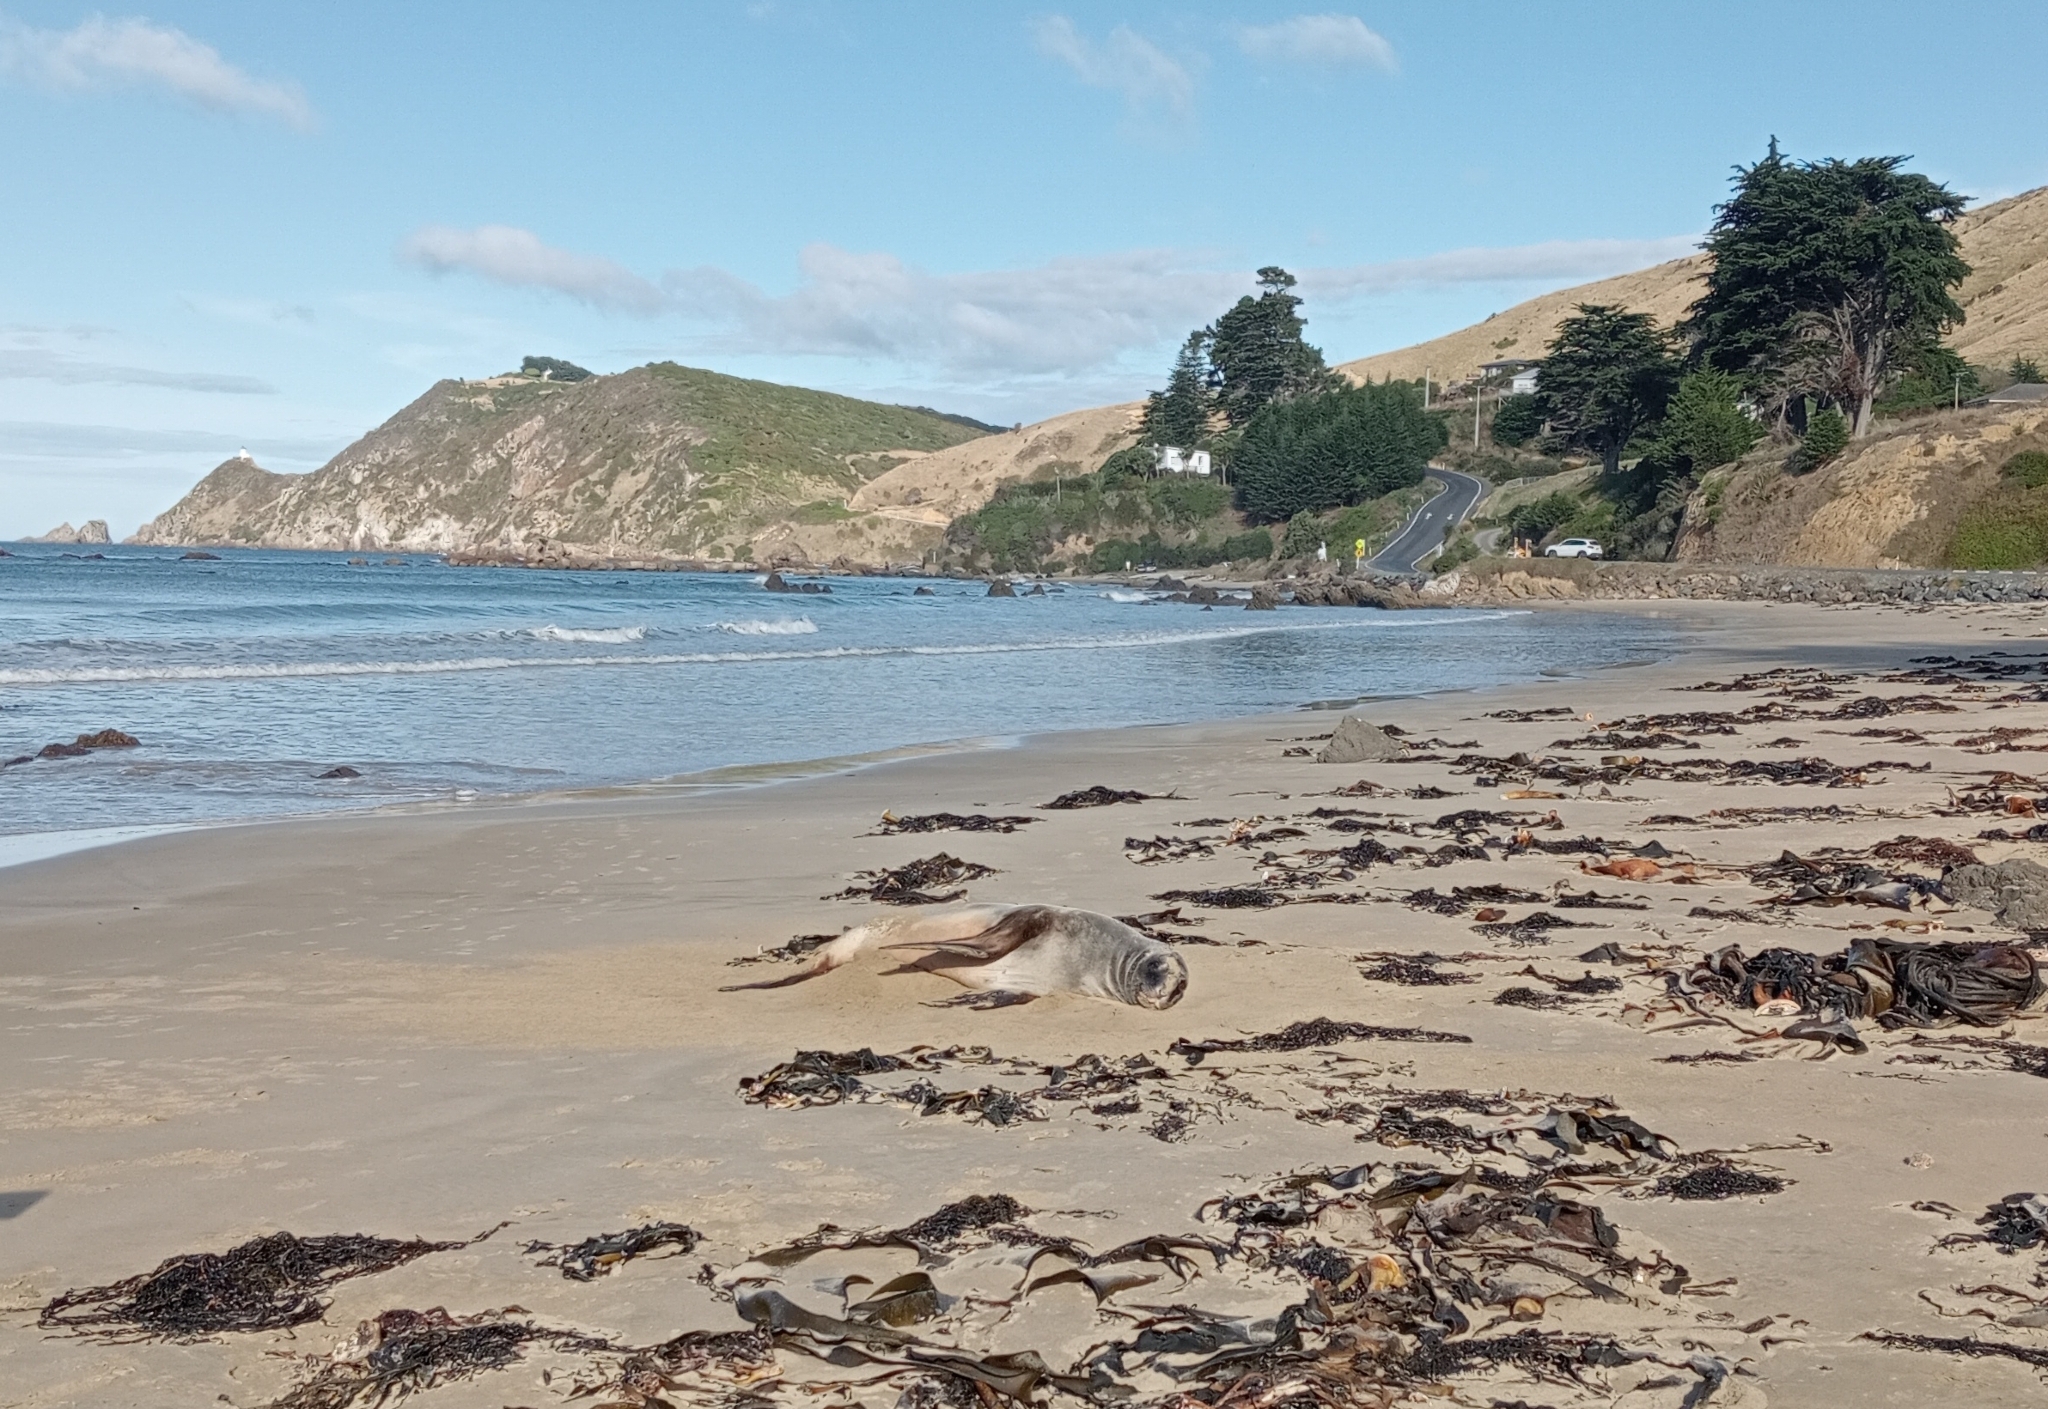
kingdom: Animalia
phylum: Chordata
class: Mammalia
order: Carnivora
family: Otariidae
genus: Phocarctos
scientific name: Phocarctos hookeri
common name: New zealand sea lion
